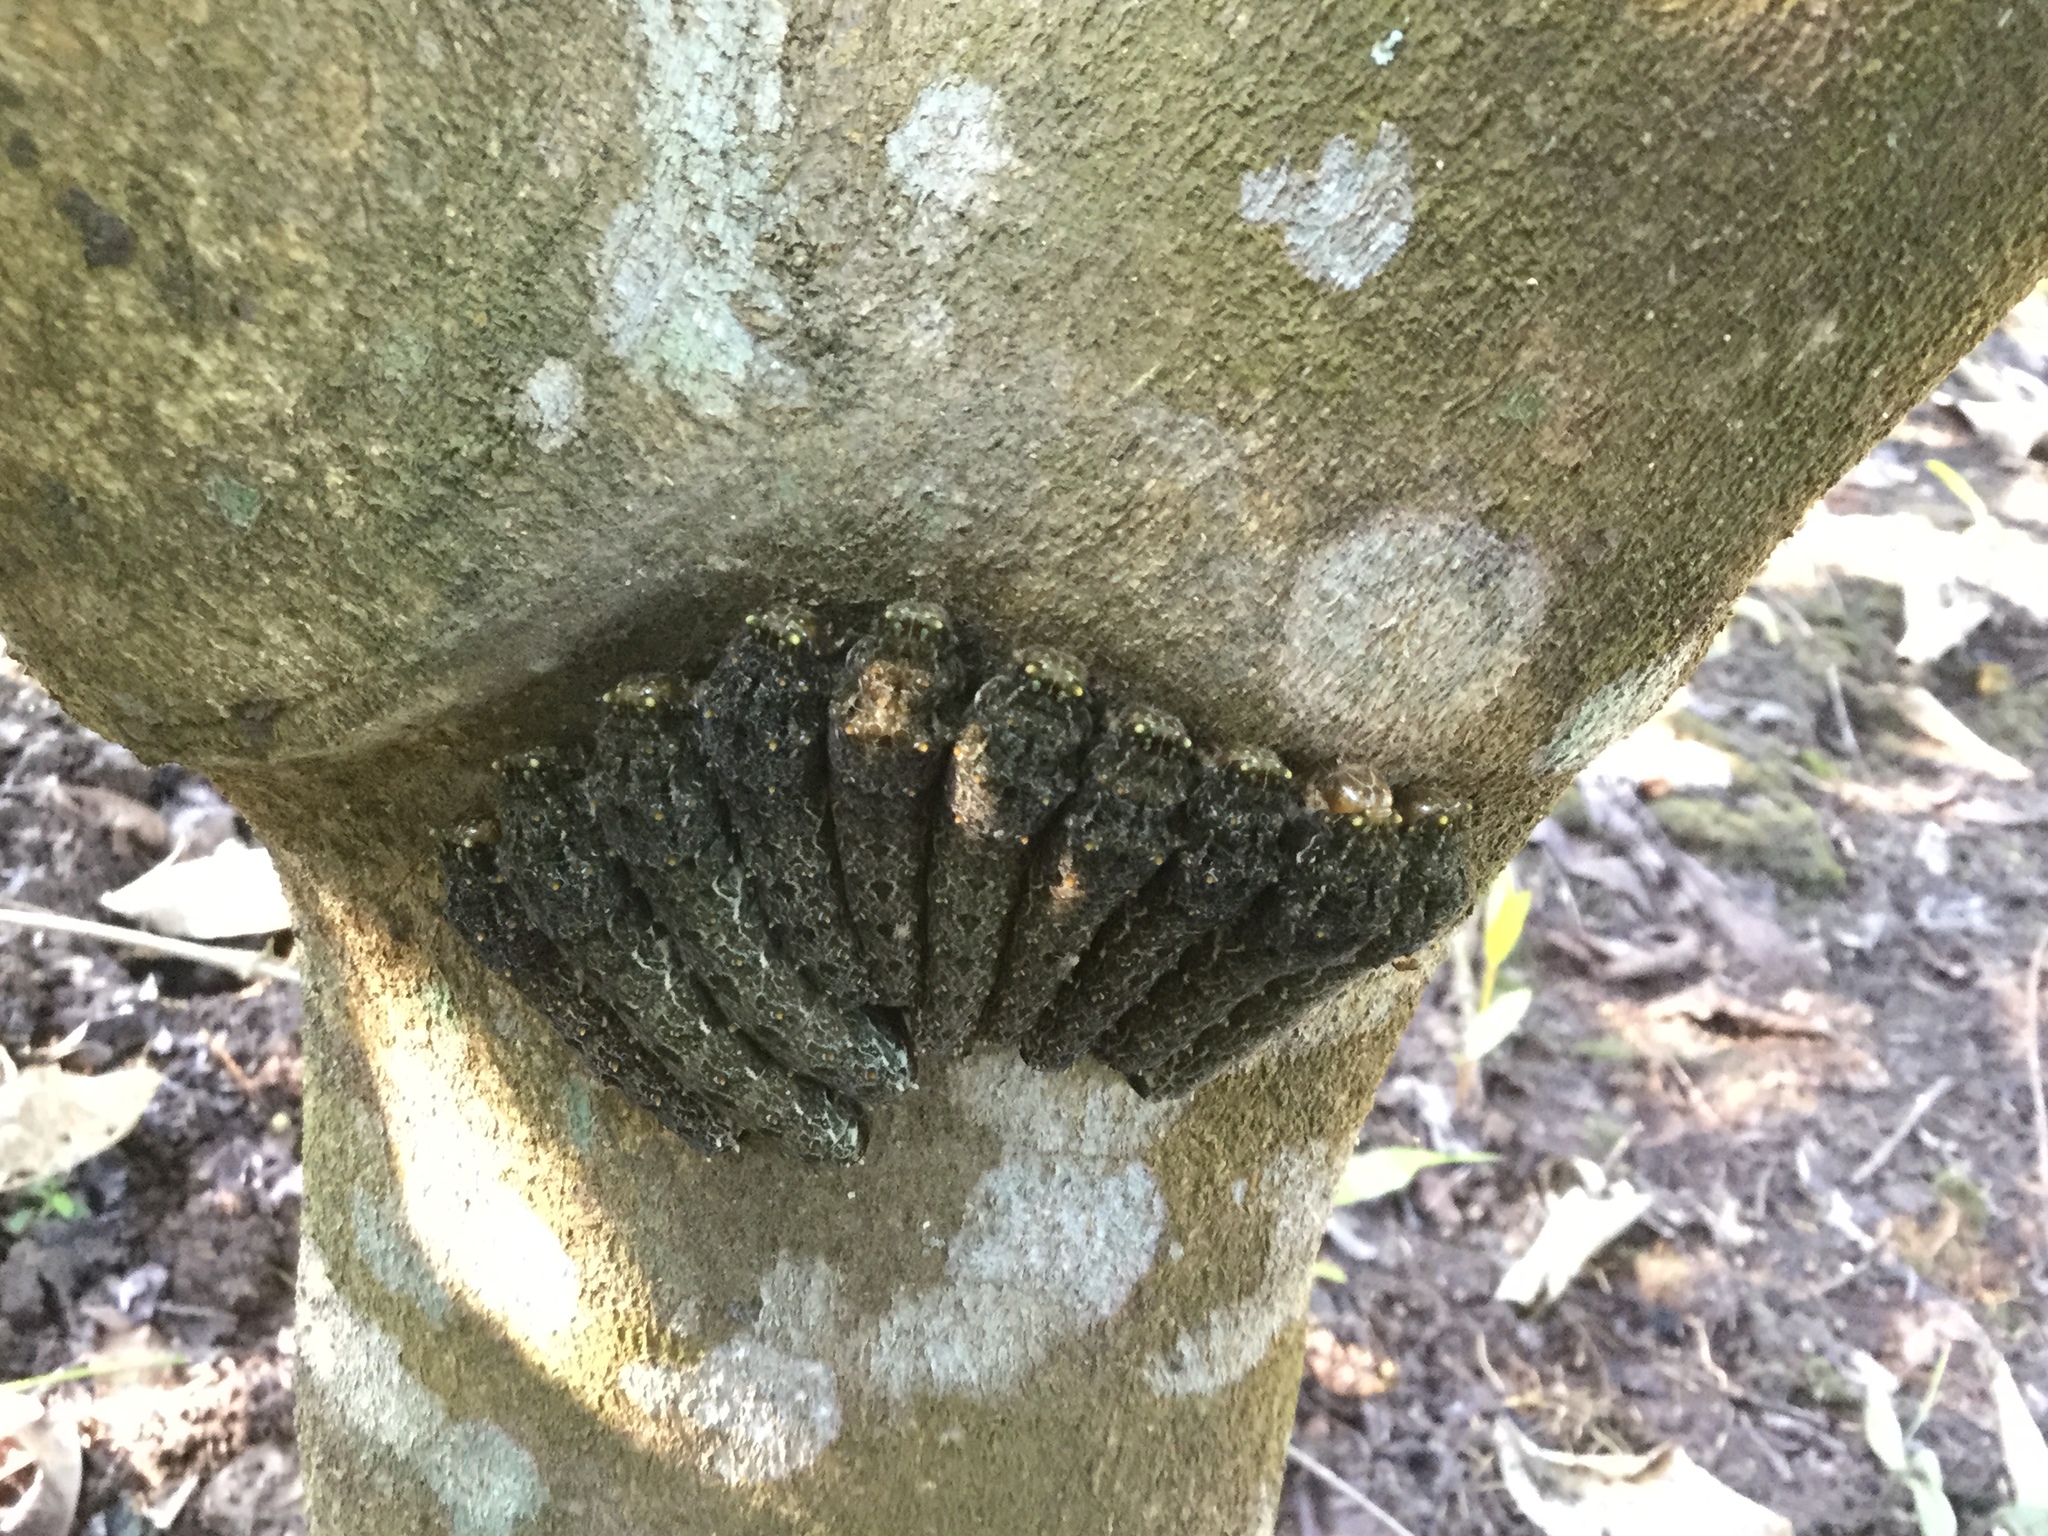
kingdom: Animalia
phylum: Arthropoda
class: Insecta
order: Lepidoptera
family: Papilionidae
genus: Heraclides
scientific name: Heraclides rogeri
